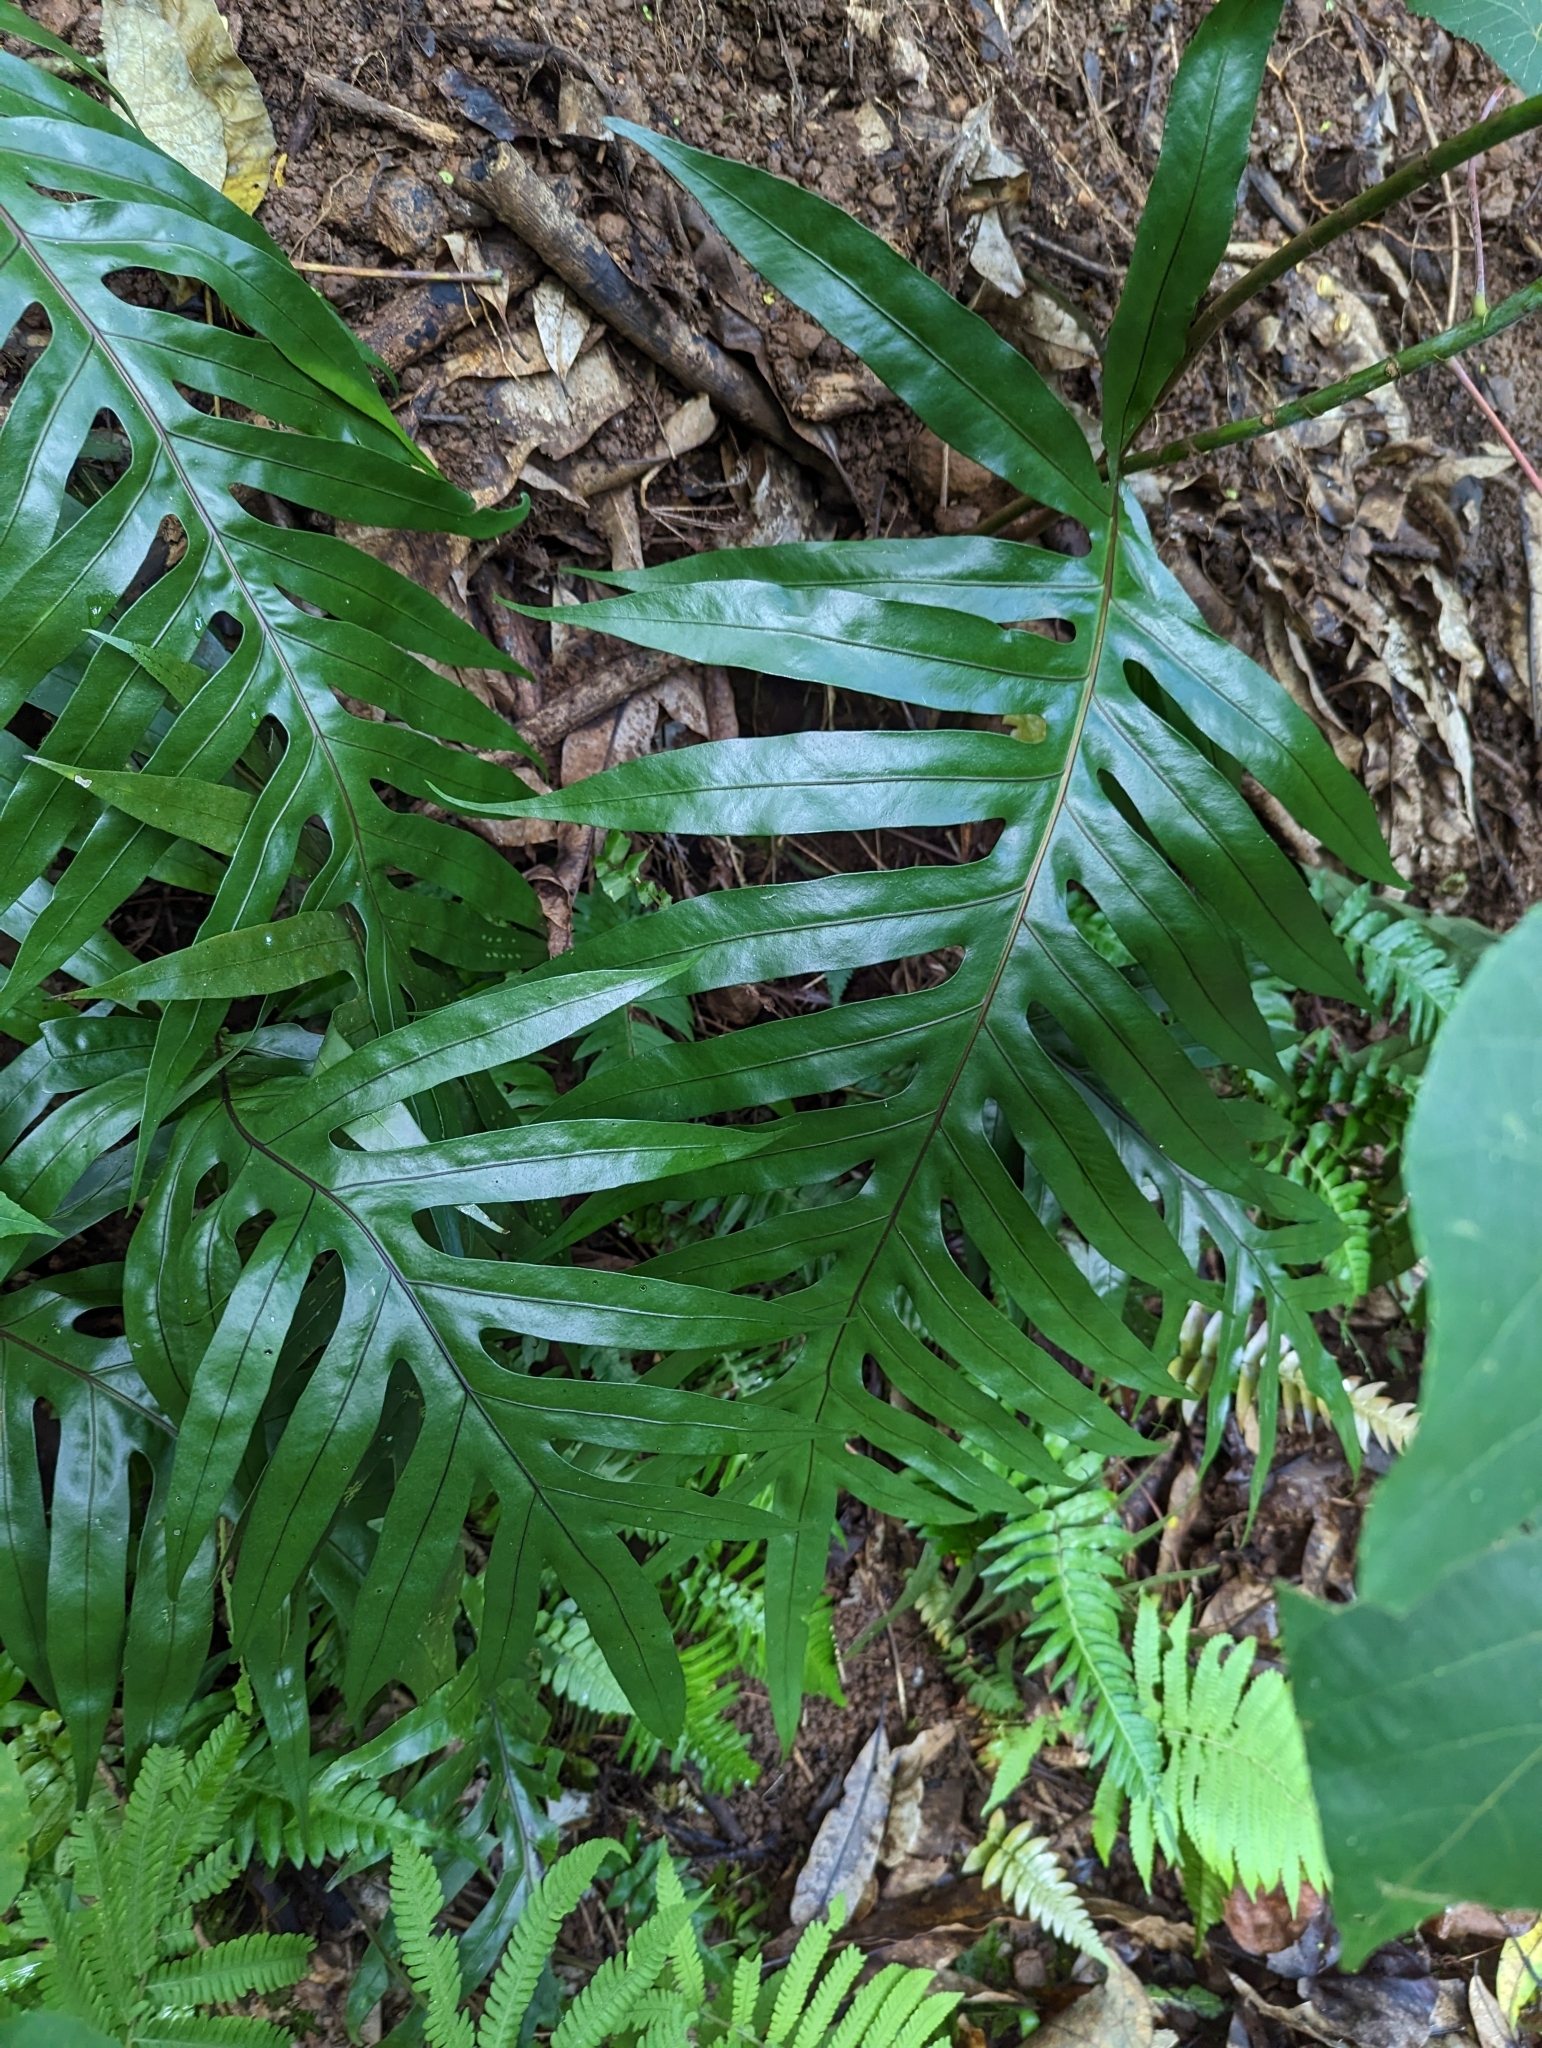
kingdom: Plantae
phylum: Tracheophyta
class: Polypodiopsida
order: Polypodiales
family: Polypodiaceae
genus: Microsorum
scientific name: Microsorum grossum
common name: Musk fern
